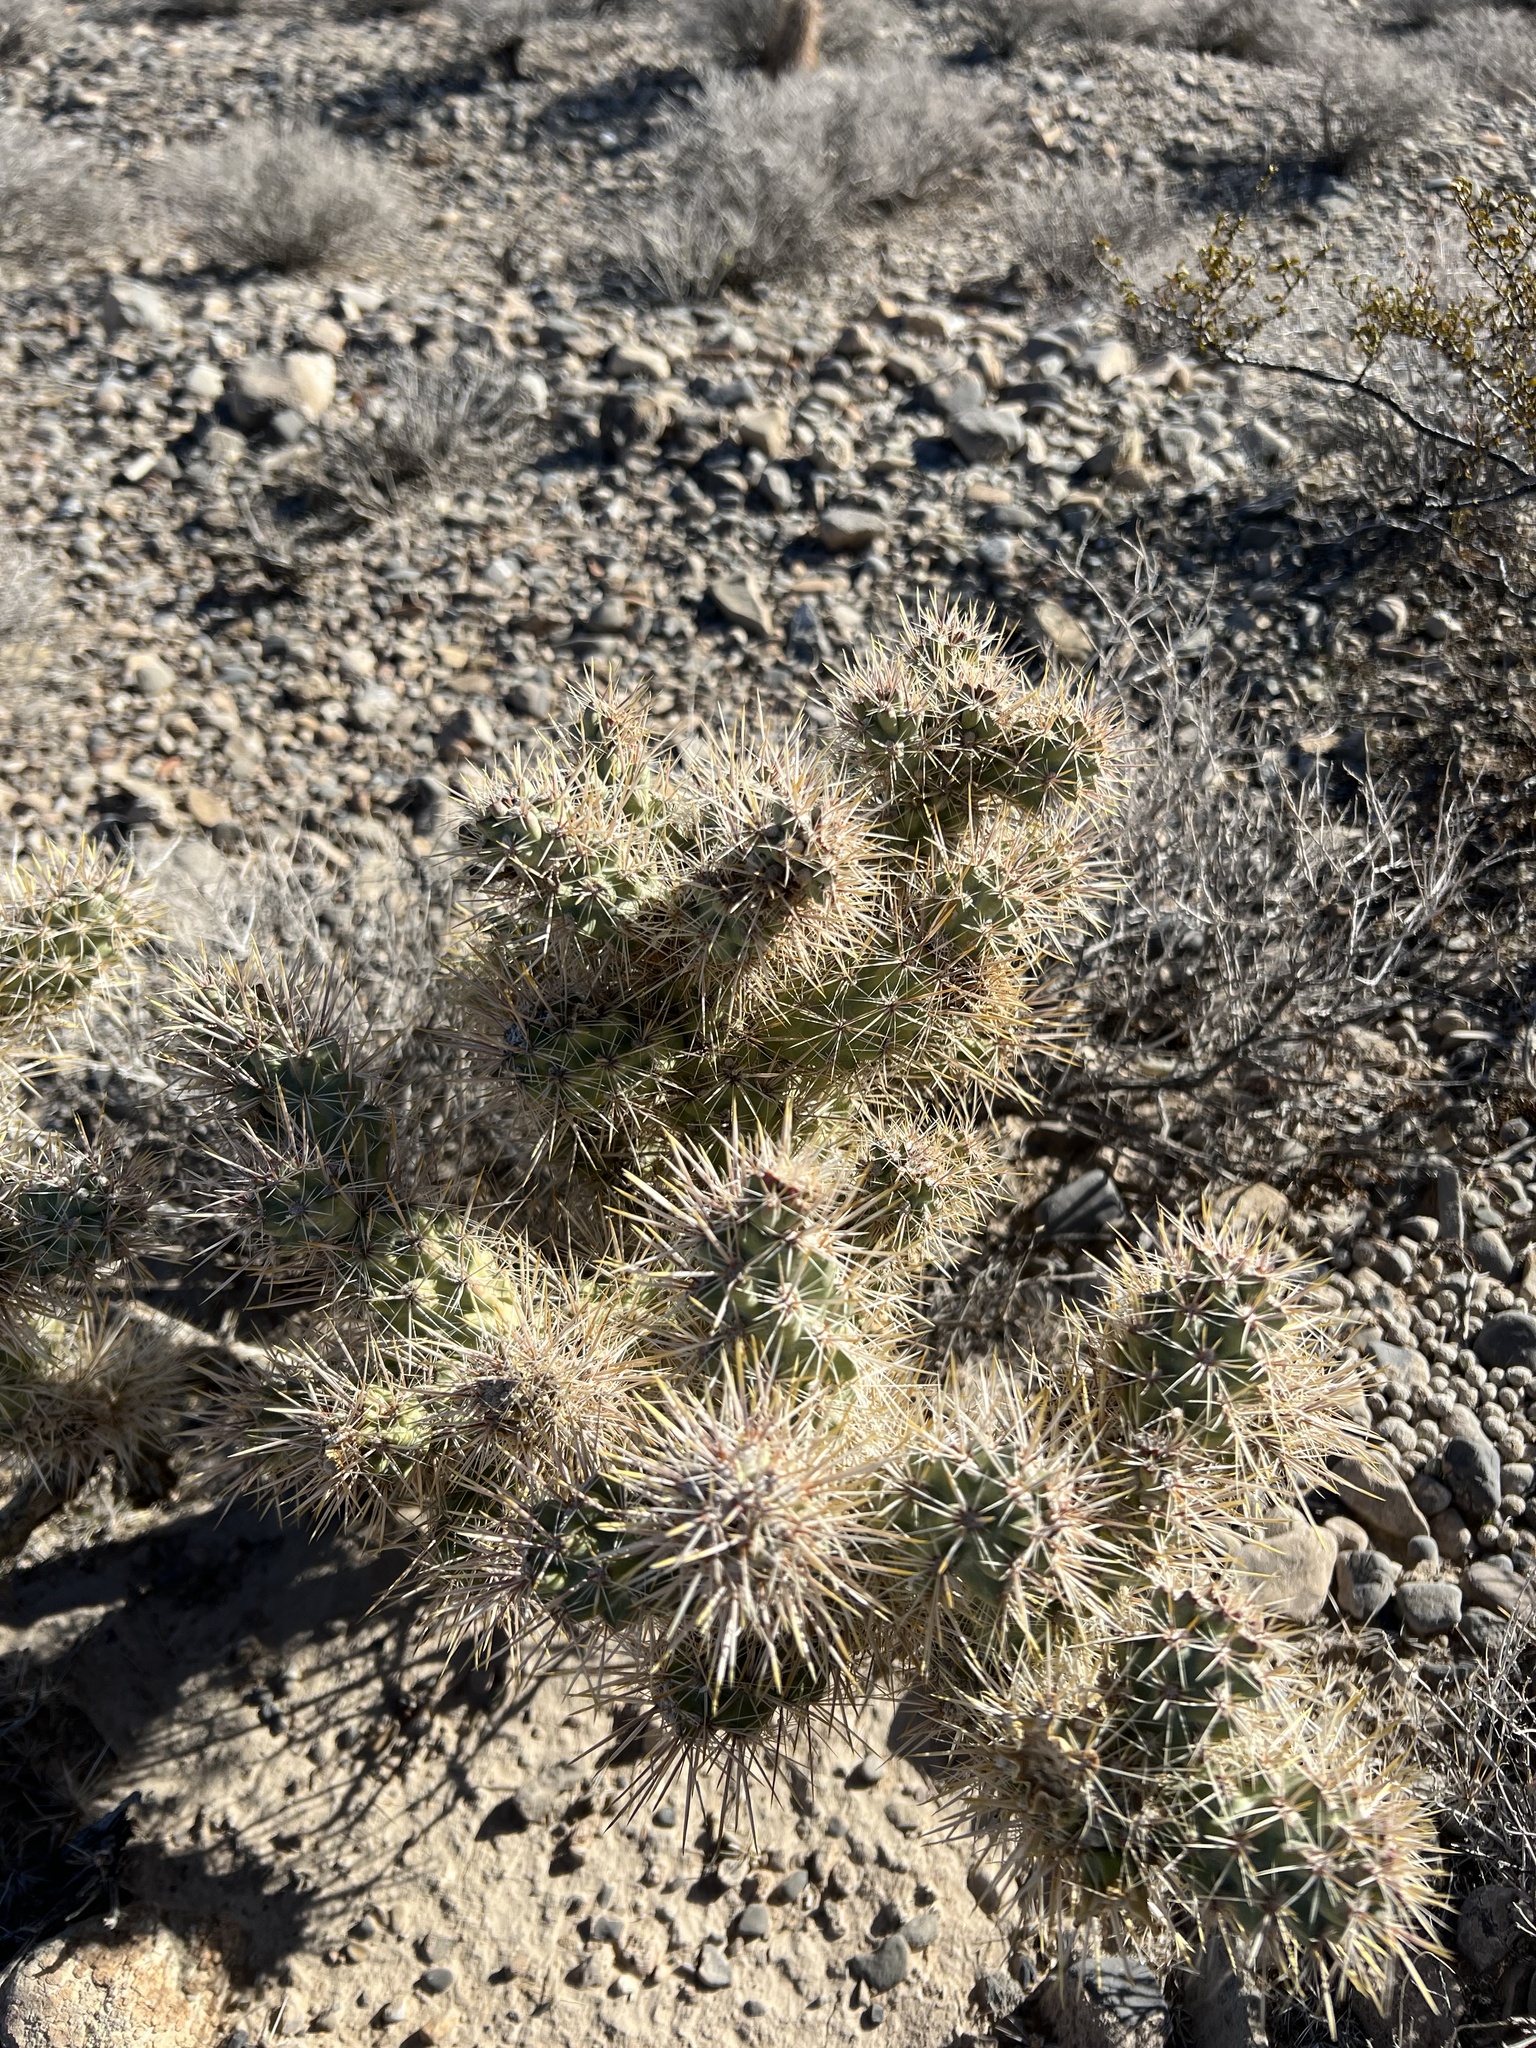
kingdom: Plantae
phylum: Tracheophyta
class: Magnoliopsida
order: Caryophyllales
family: Cactaceae
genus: Cylindropuntia
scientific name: Cylindropuntia echinocarpa
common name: Ground cholla
